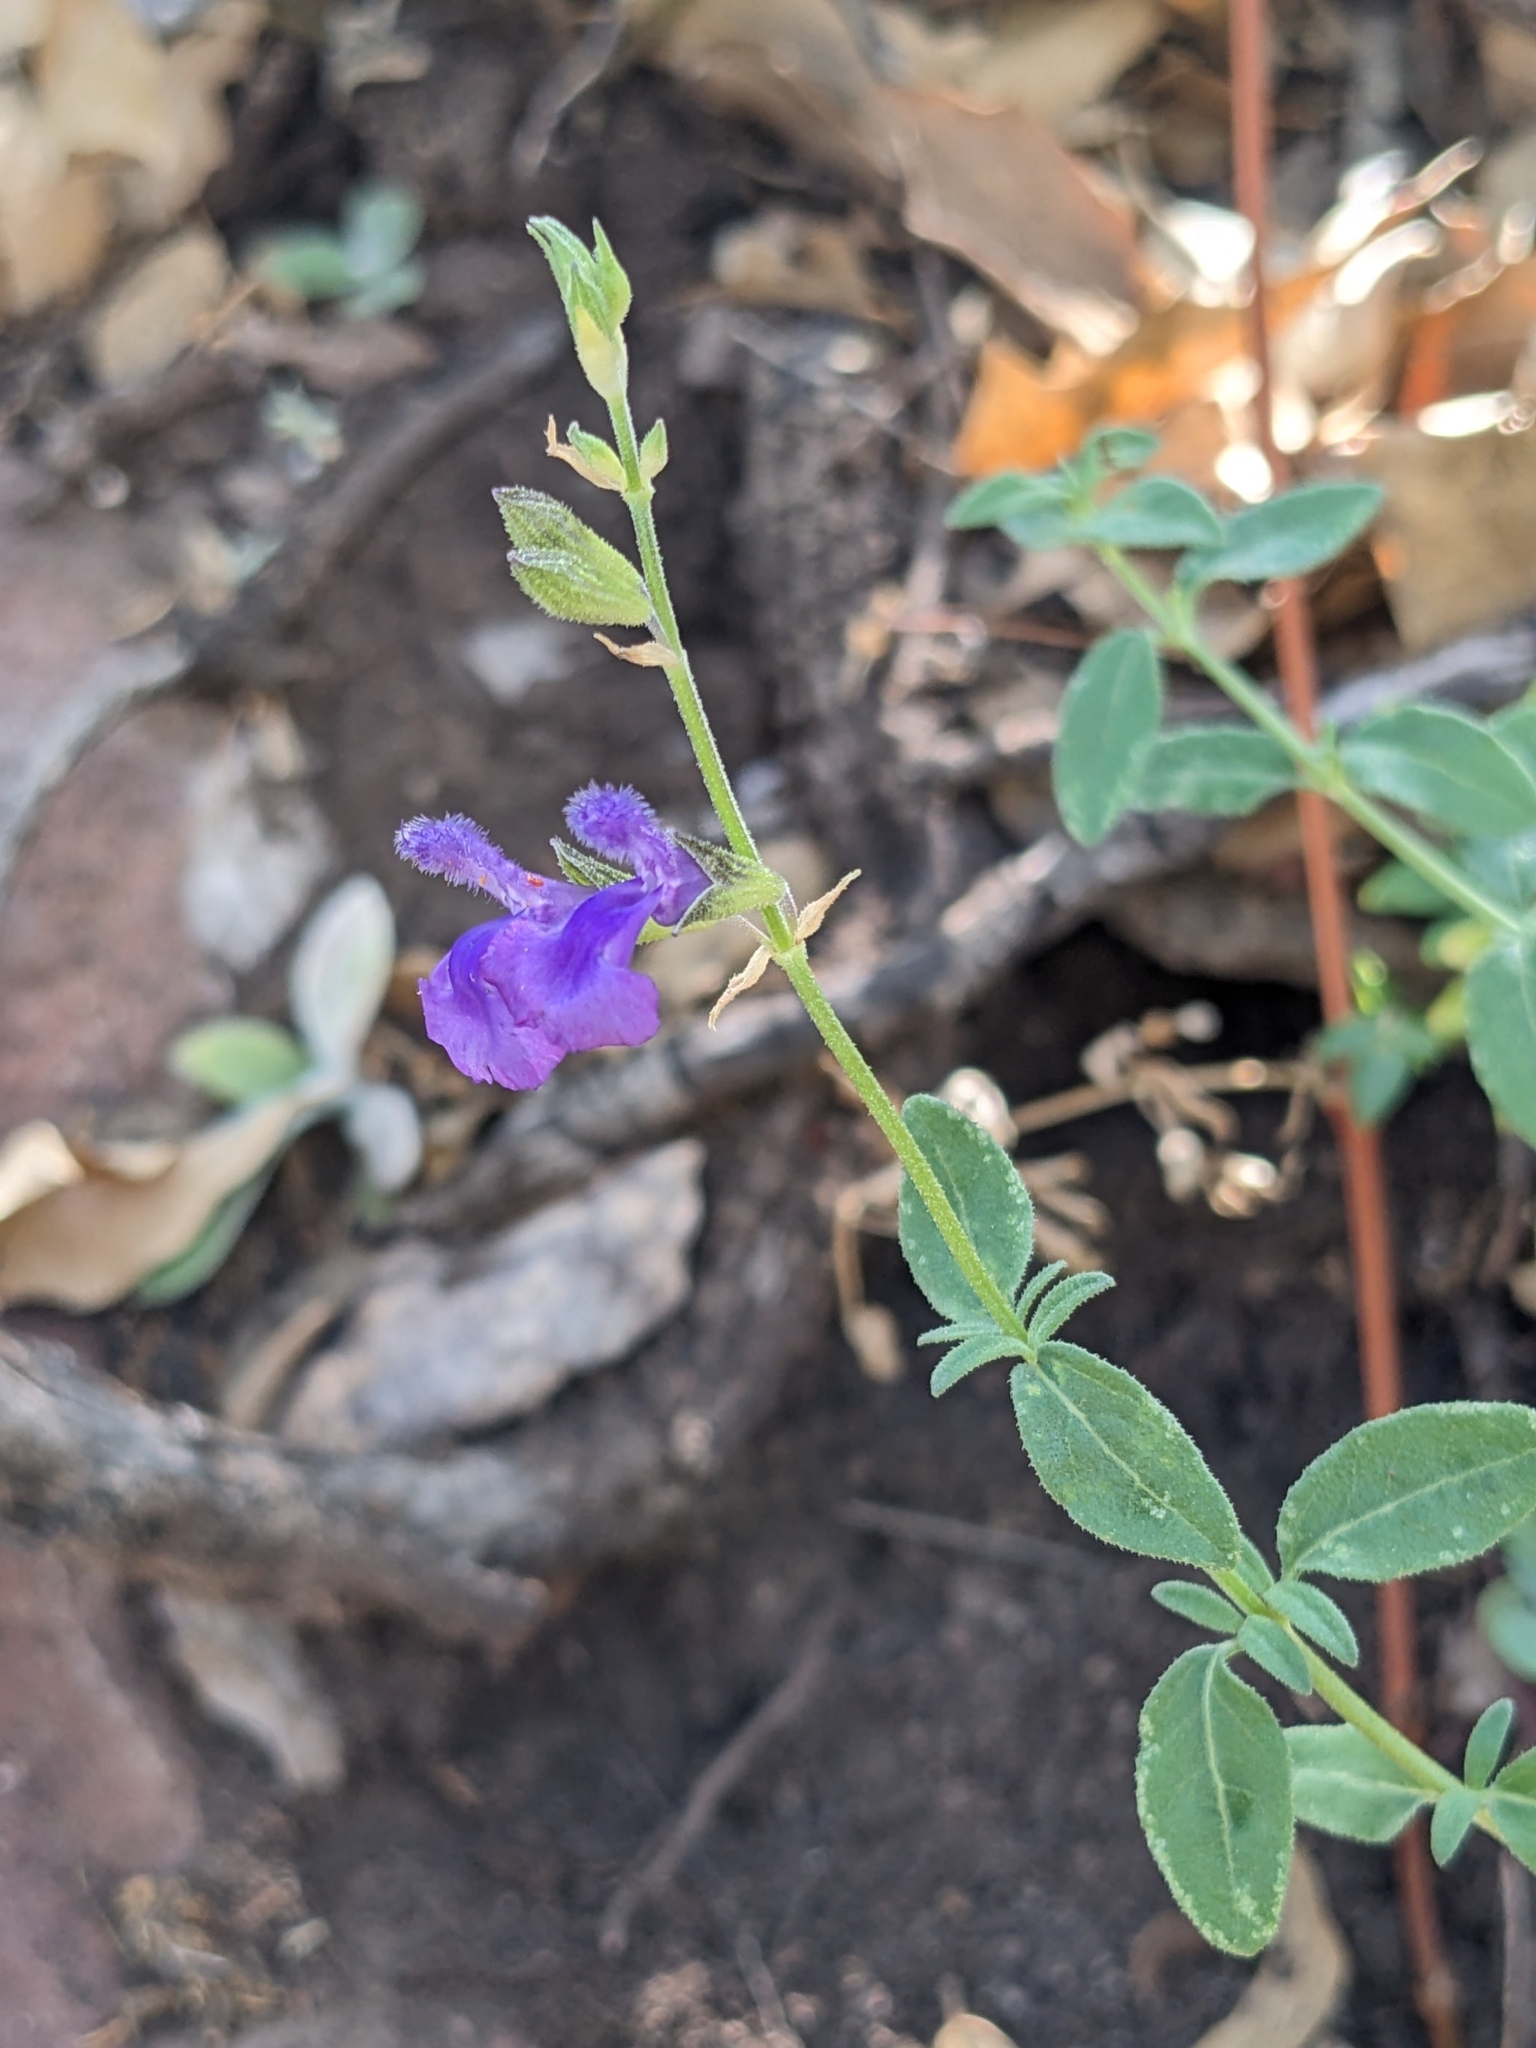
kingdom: Plantae
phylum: Tracheophyta
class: Magnoliopsida
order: Lamiales
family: Lamiaceae
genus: Salvia
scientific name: Salvia lycioides
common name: Canyon sage
